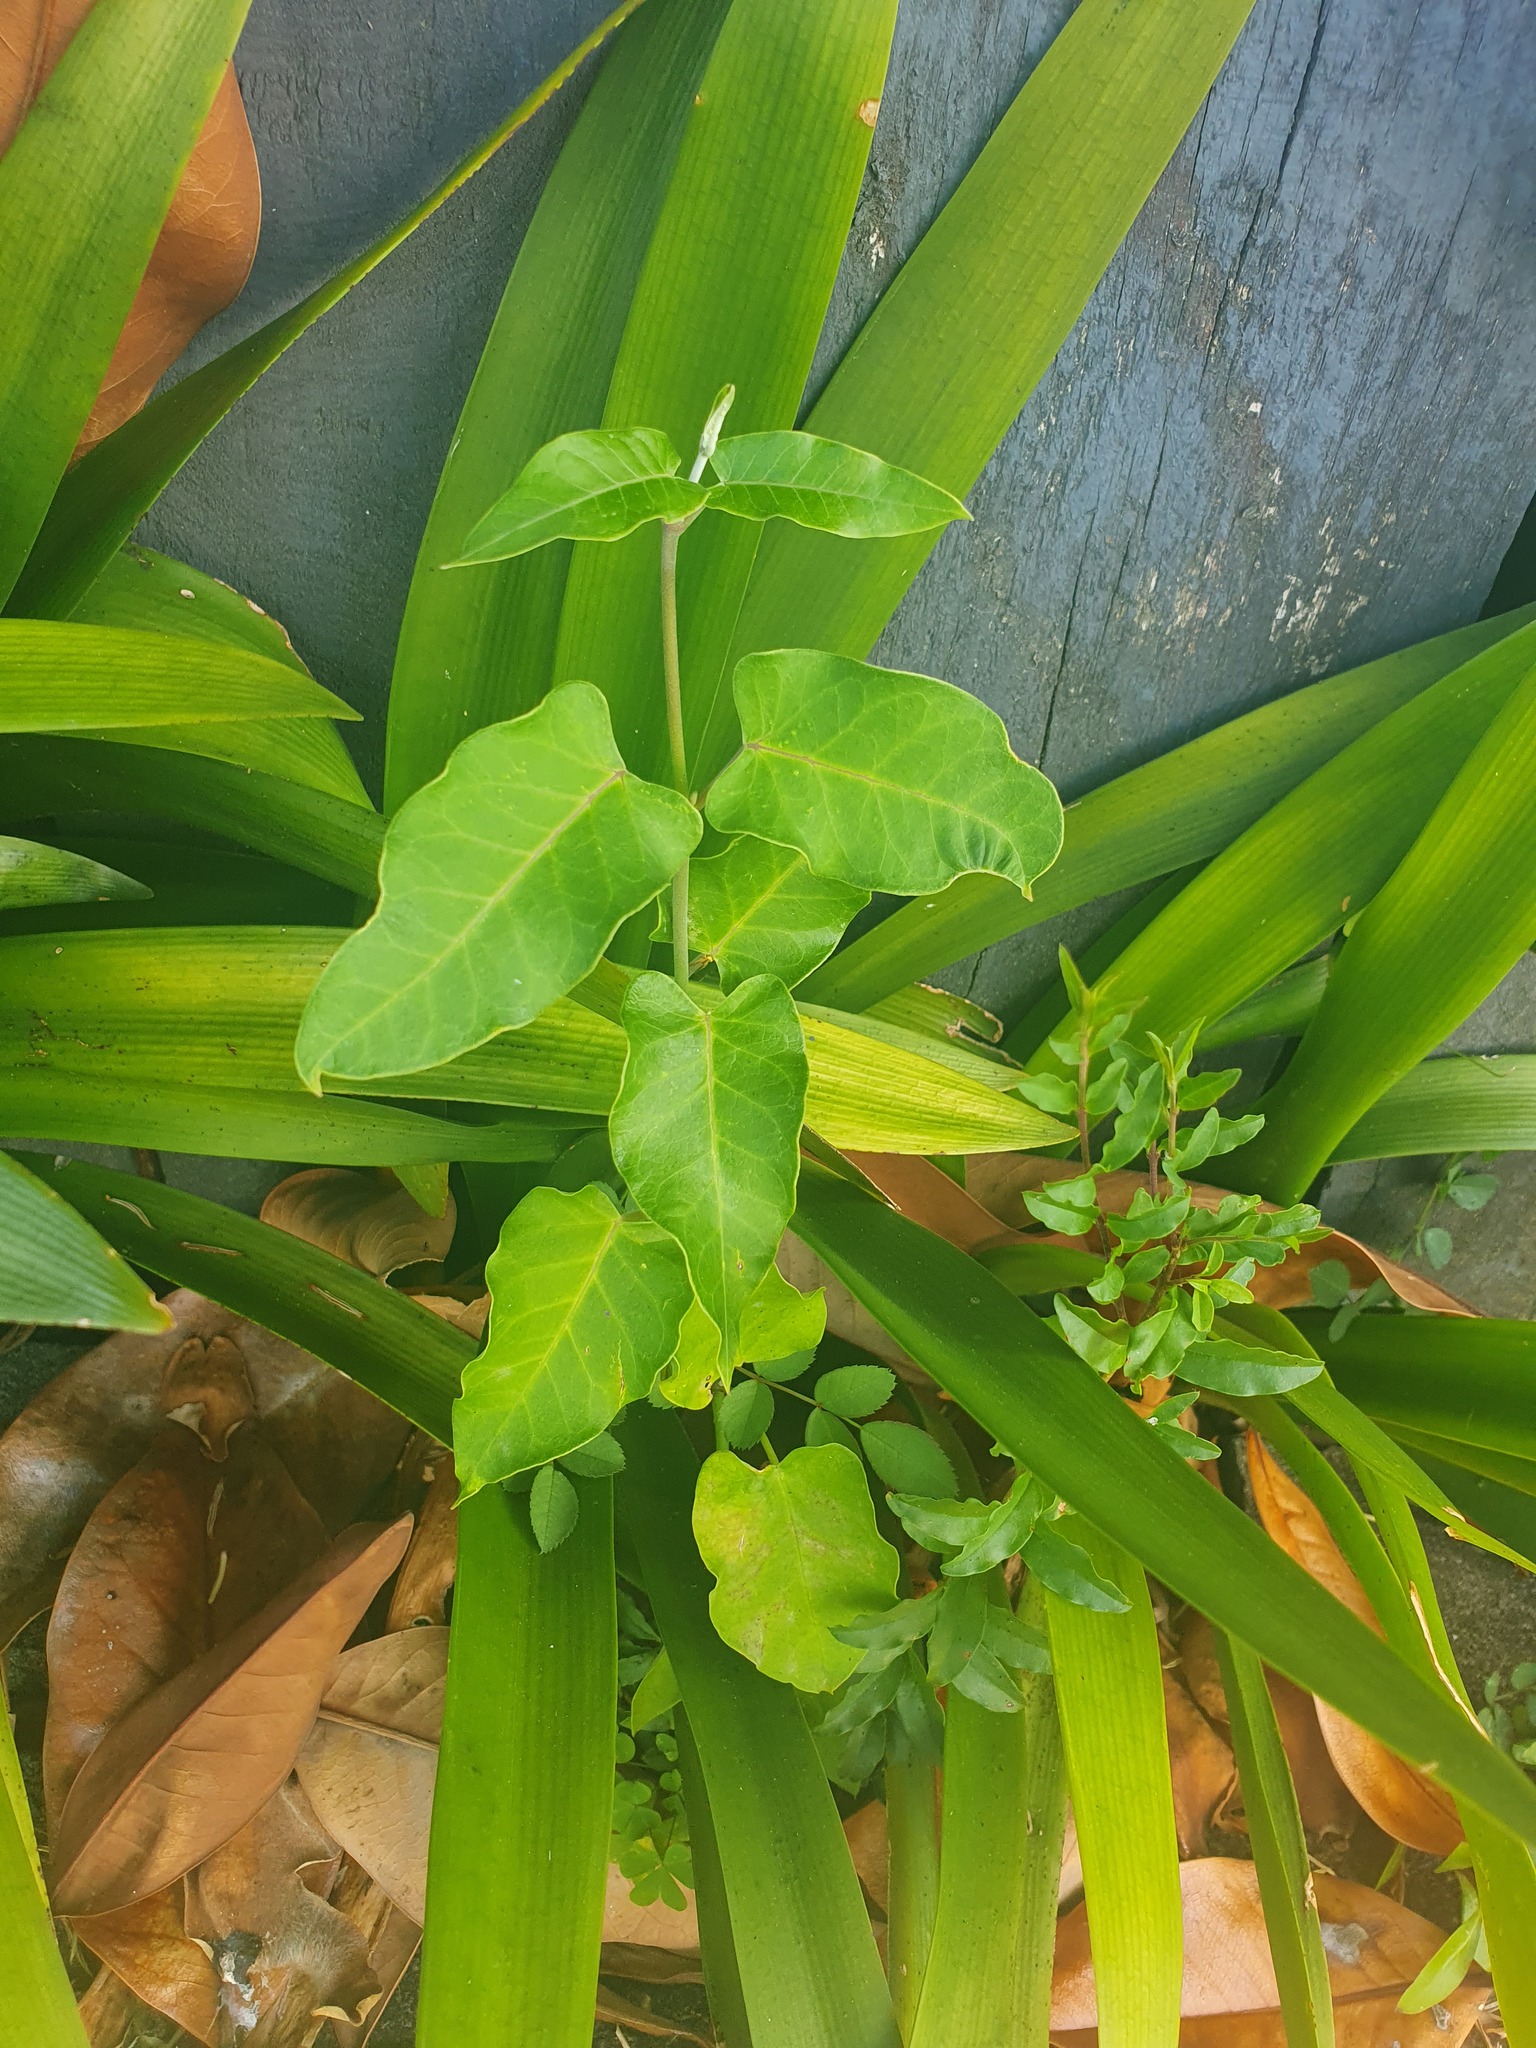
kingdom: Plantae
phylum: Tracheophyta
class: Magnoliopsida
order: Gentianales
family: Apocynaceae
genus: Araujia
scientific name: Araujia sericifera
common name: White bladderflower
